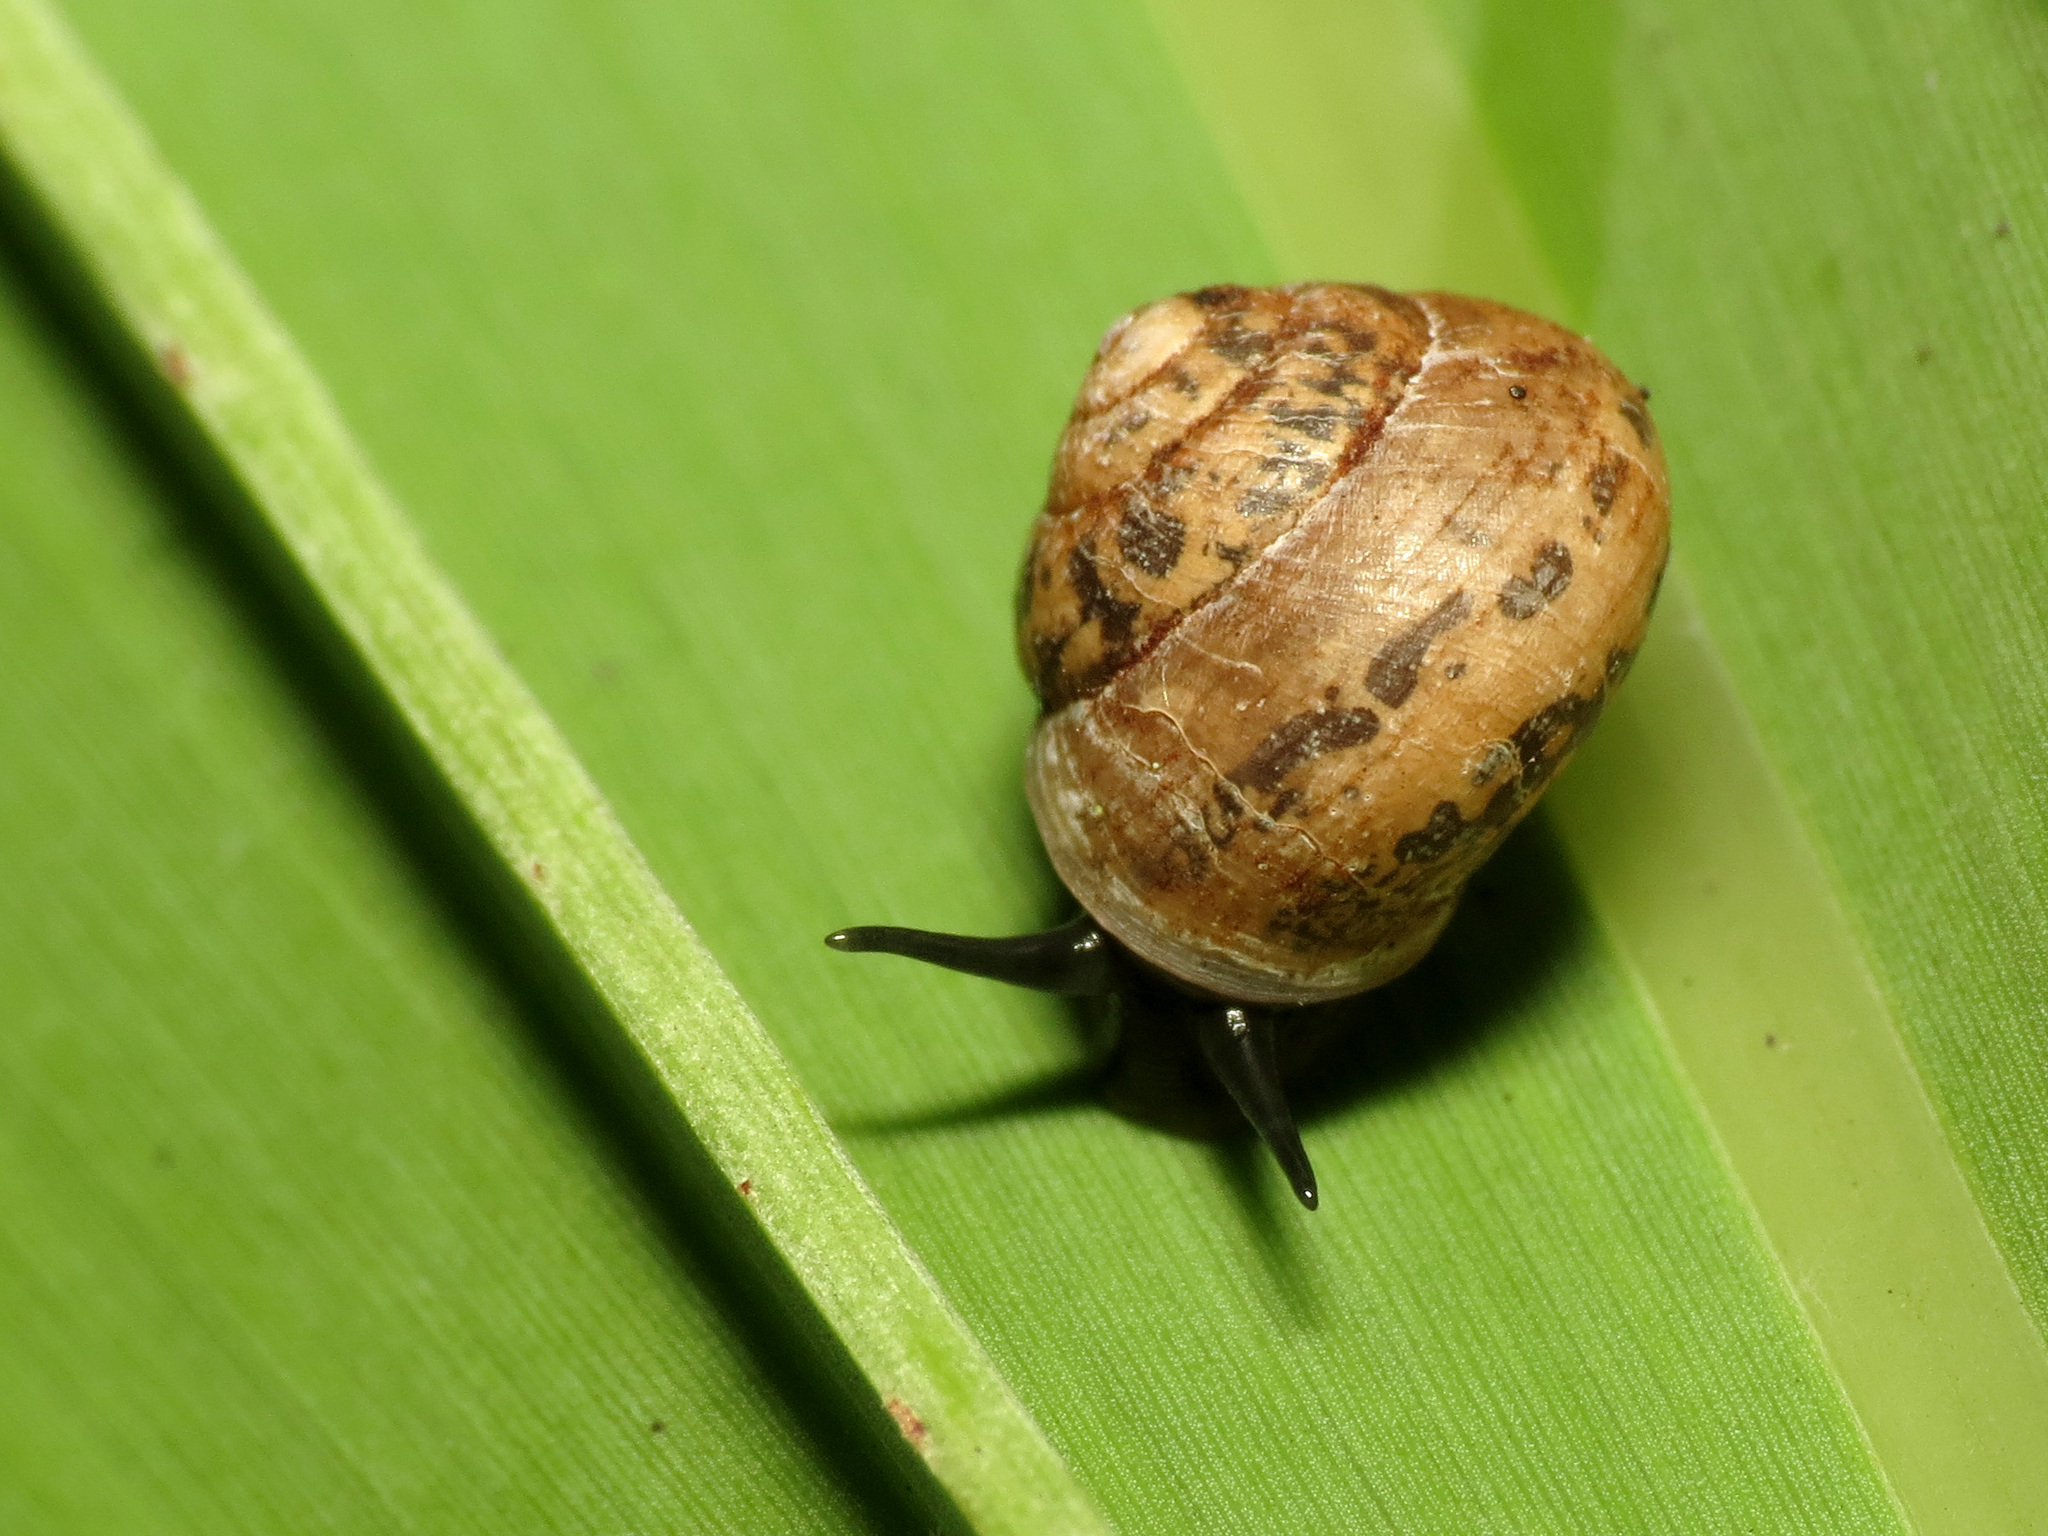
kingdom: Animalia
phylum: Mollusca
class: Gastropoda
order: Cycloneritida
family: Helicinidae
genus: Helicina
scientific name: Helicina orbiculata
